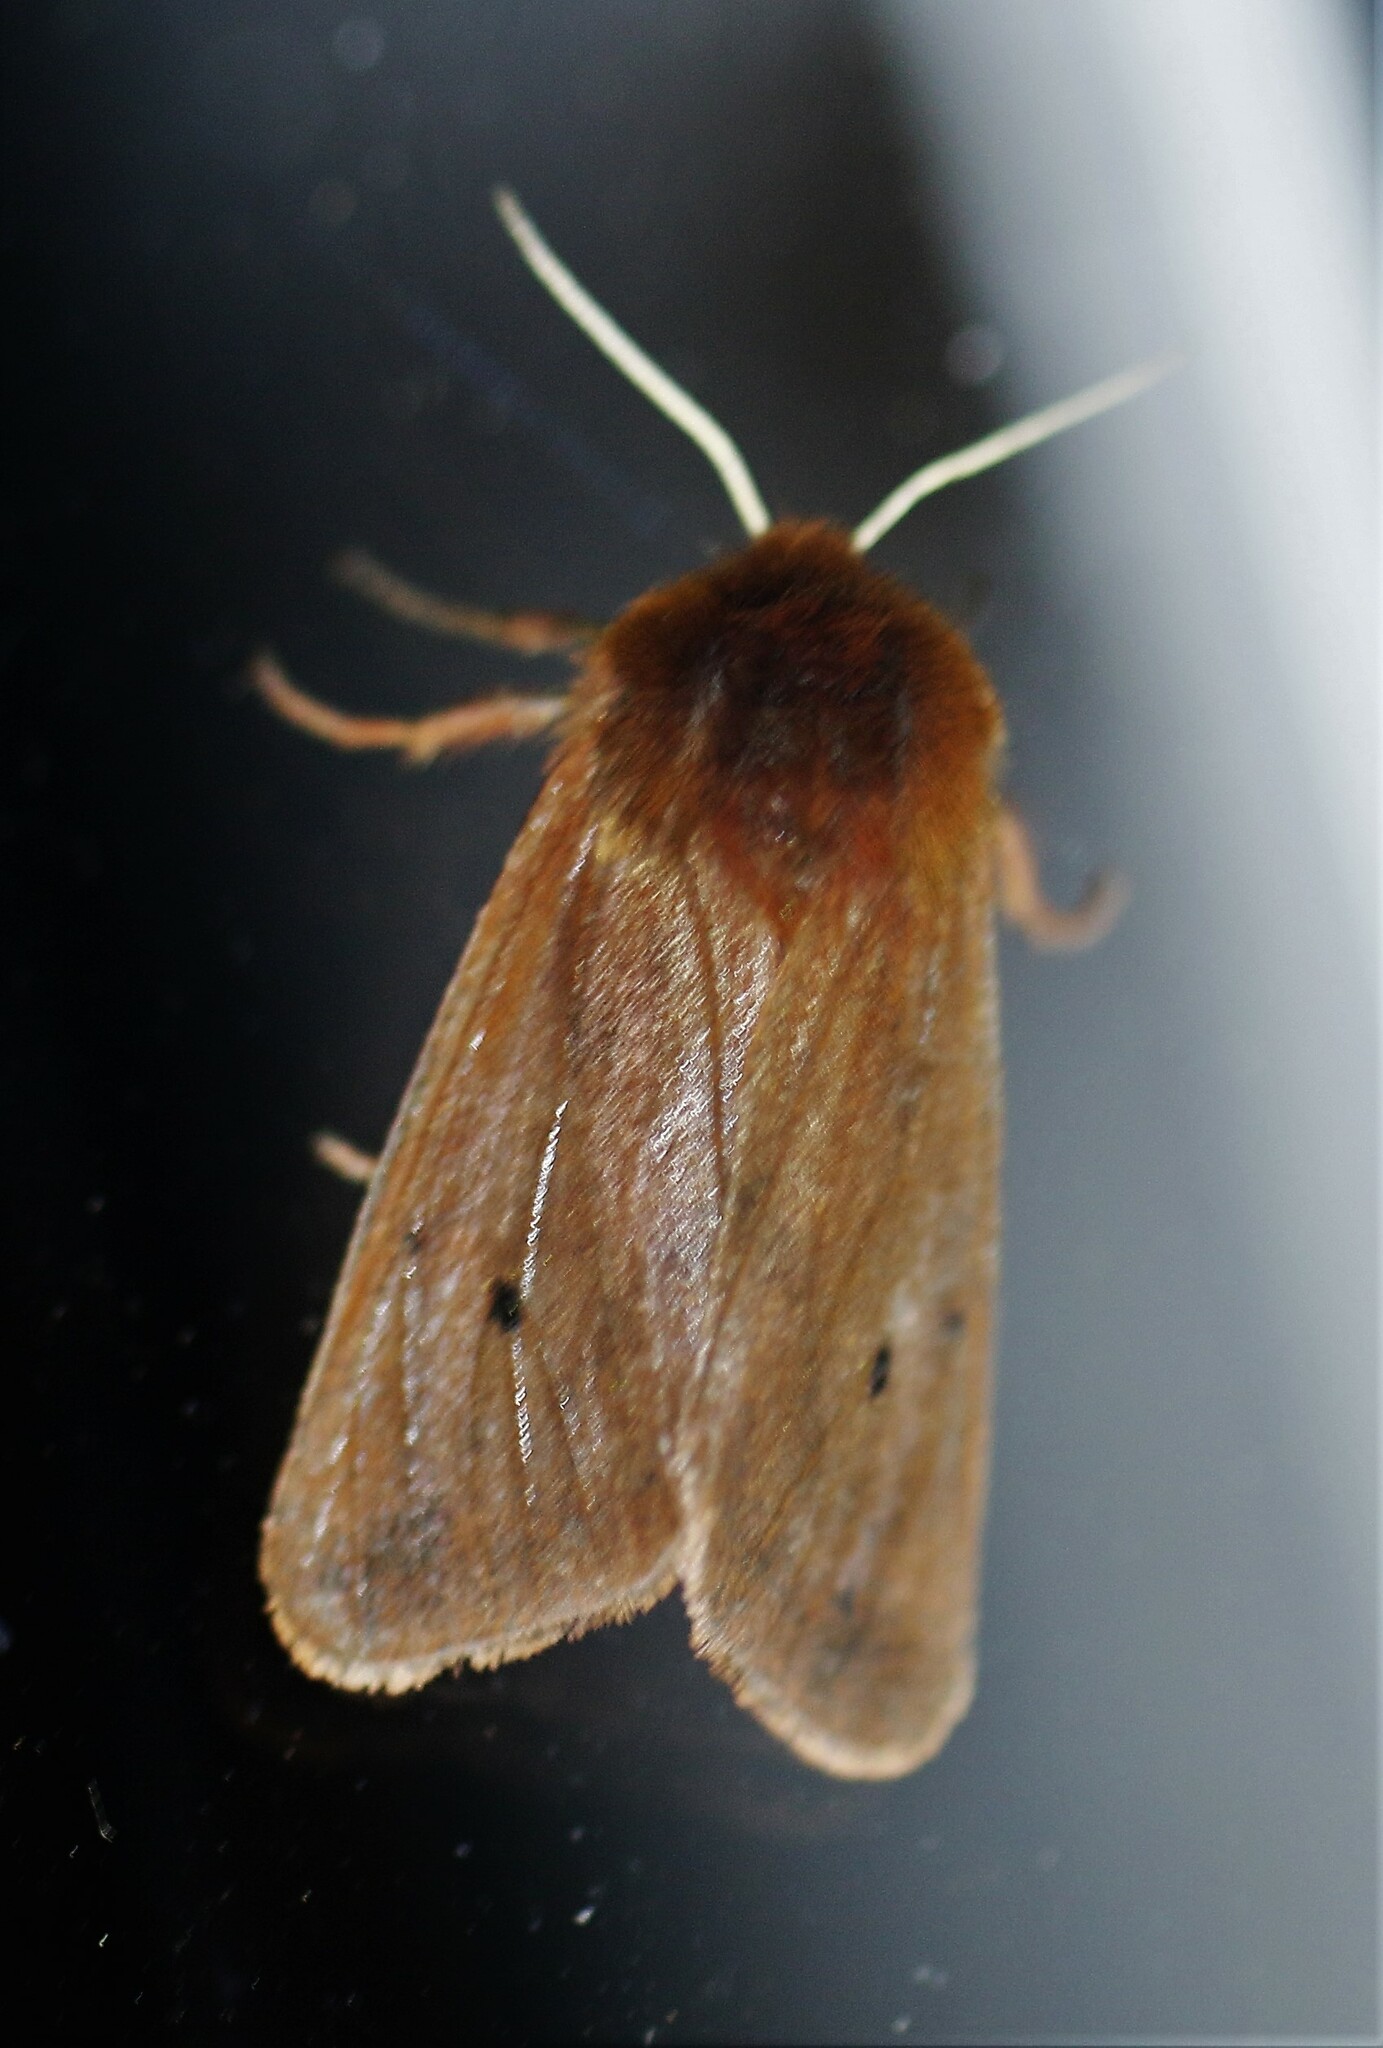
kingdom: Animalia
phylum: Arthropoda
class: Insecta
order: Lepidoptera
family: Erebidae
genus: Phragmatobia
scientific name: Phragmatobia fuliginosa
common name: Ruby tiger
